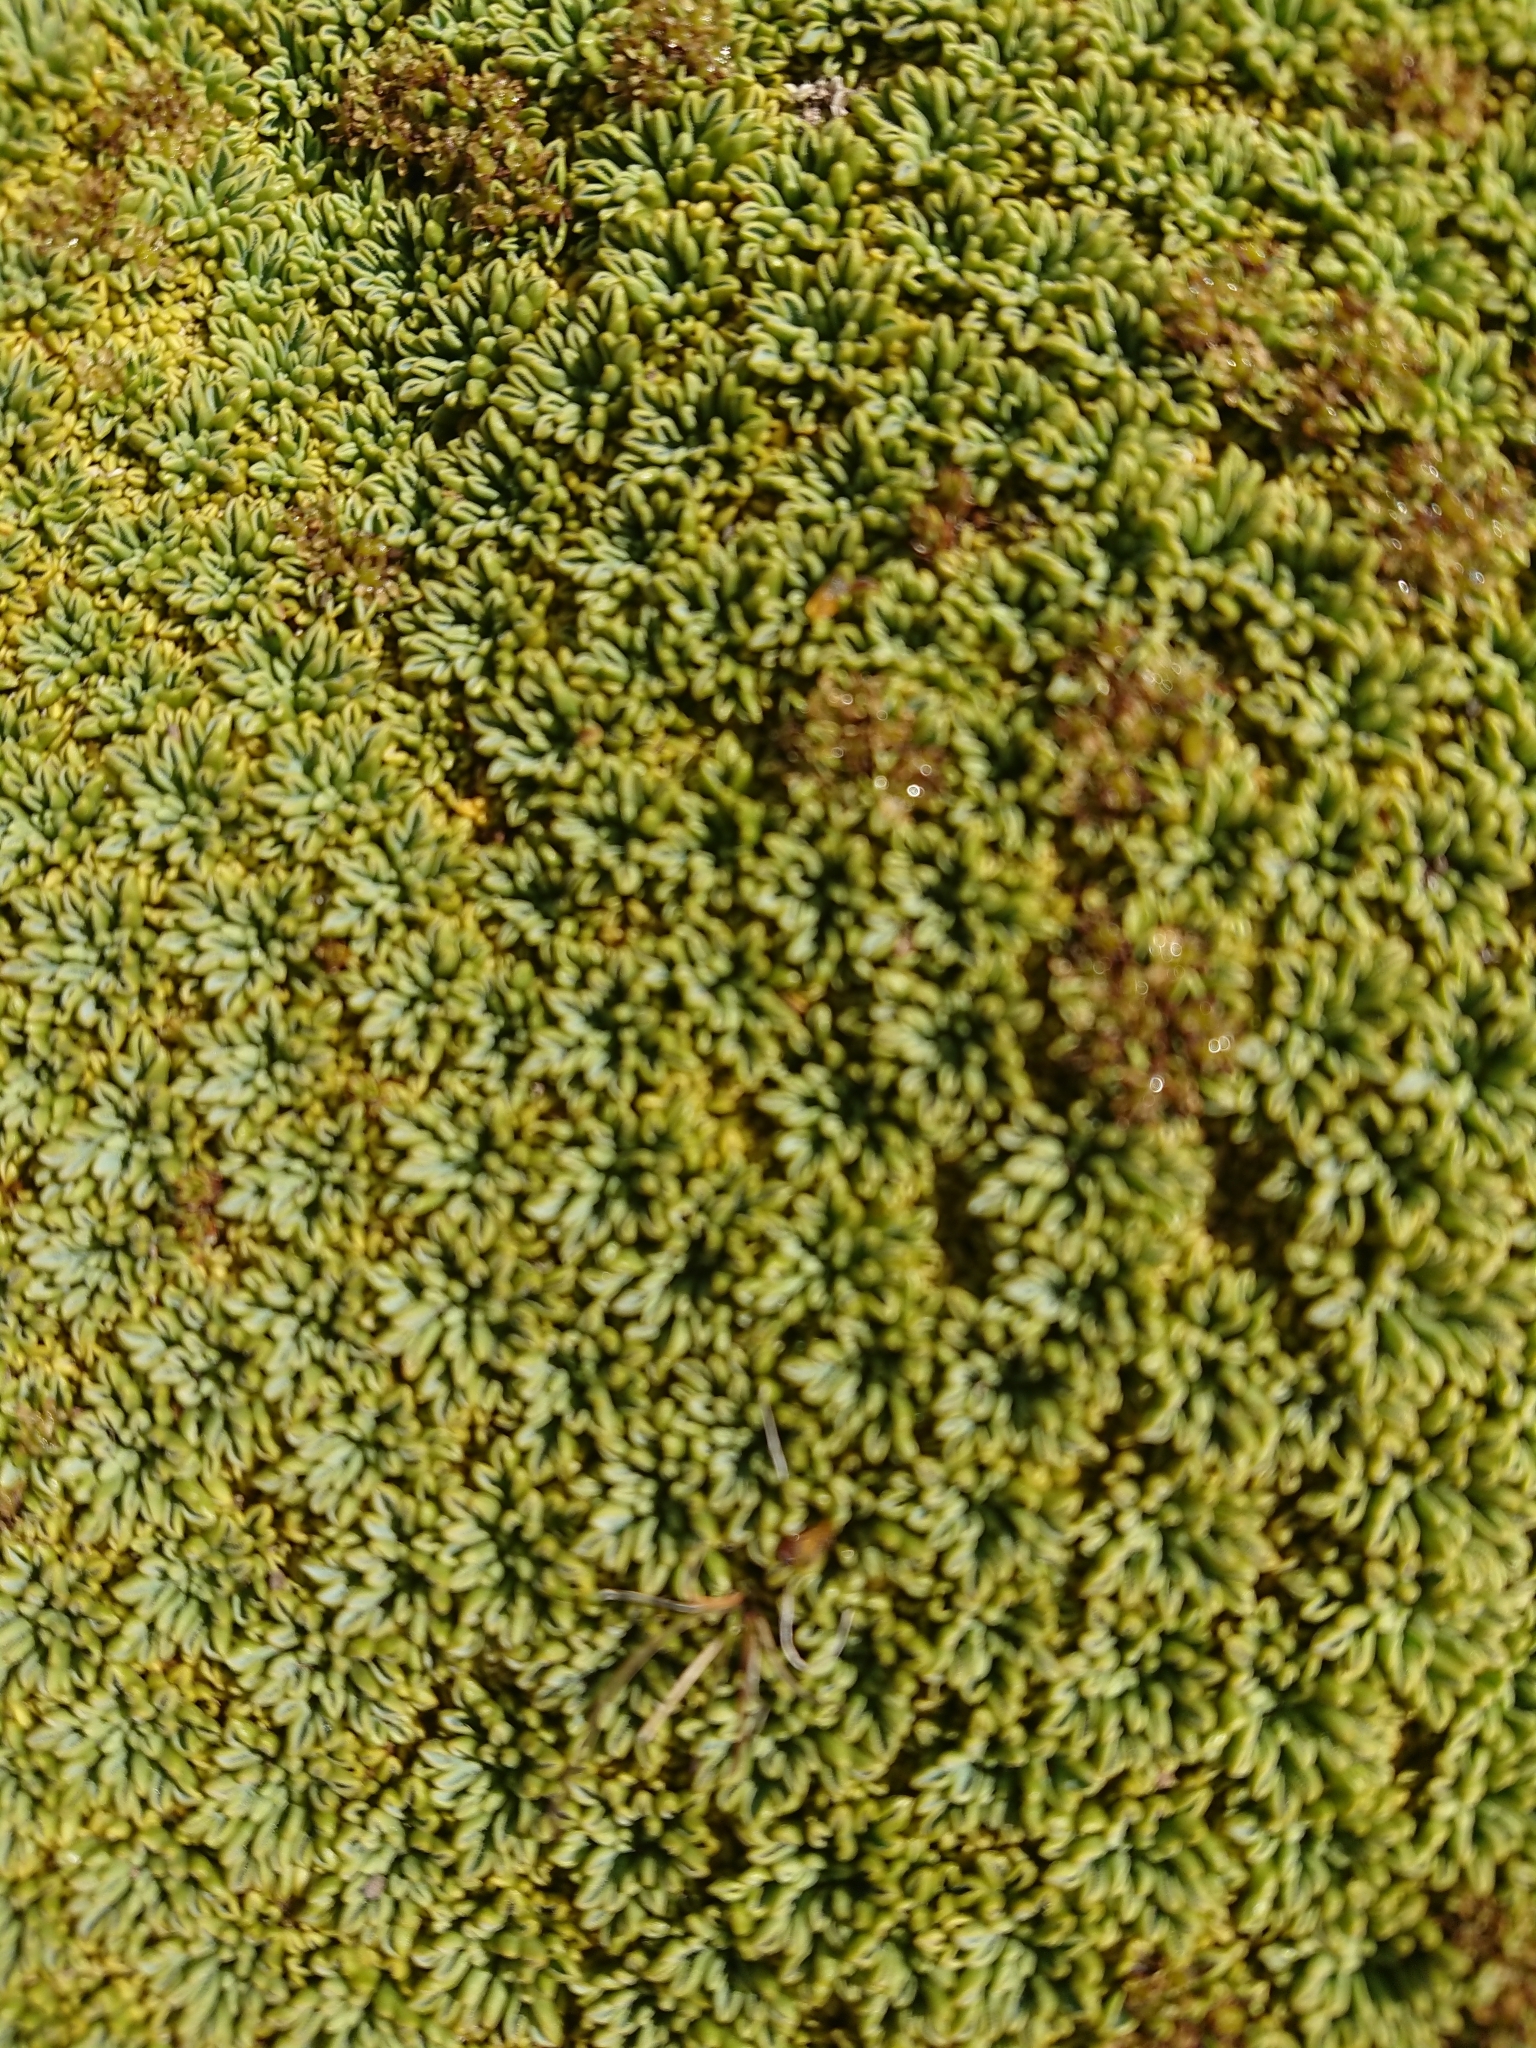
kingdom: Plantae
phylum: Tracheophyta
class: Magnoliopsida
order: Apiales
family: Apiaceae
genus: Bolax
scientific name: Bolax gummifera
